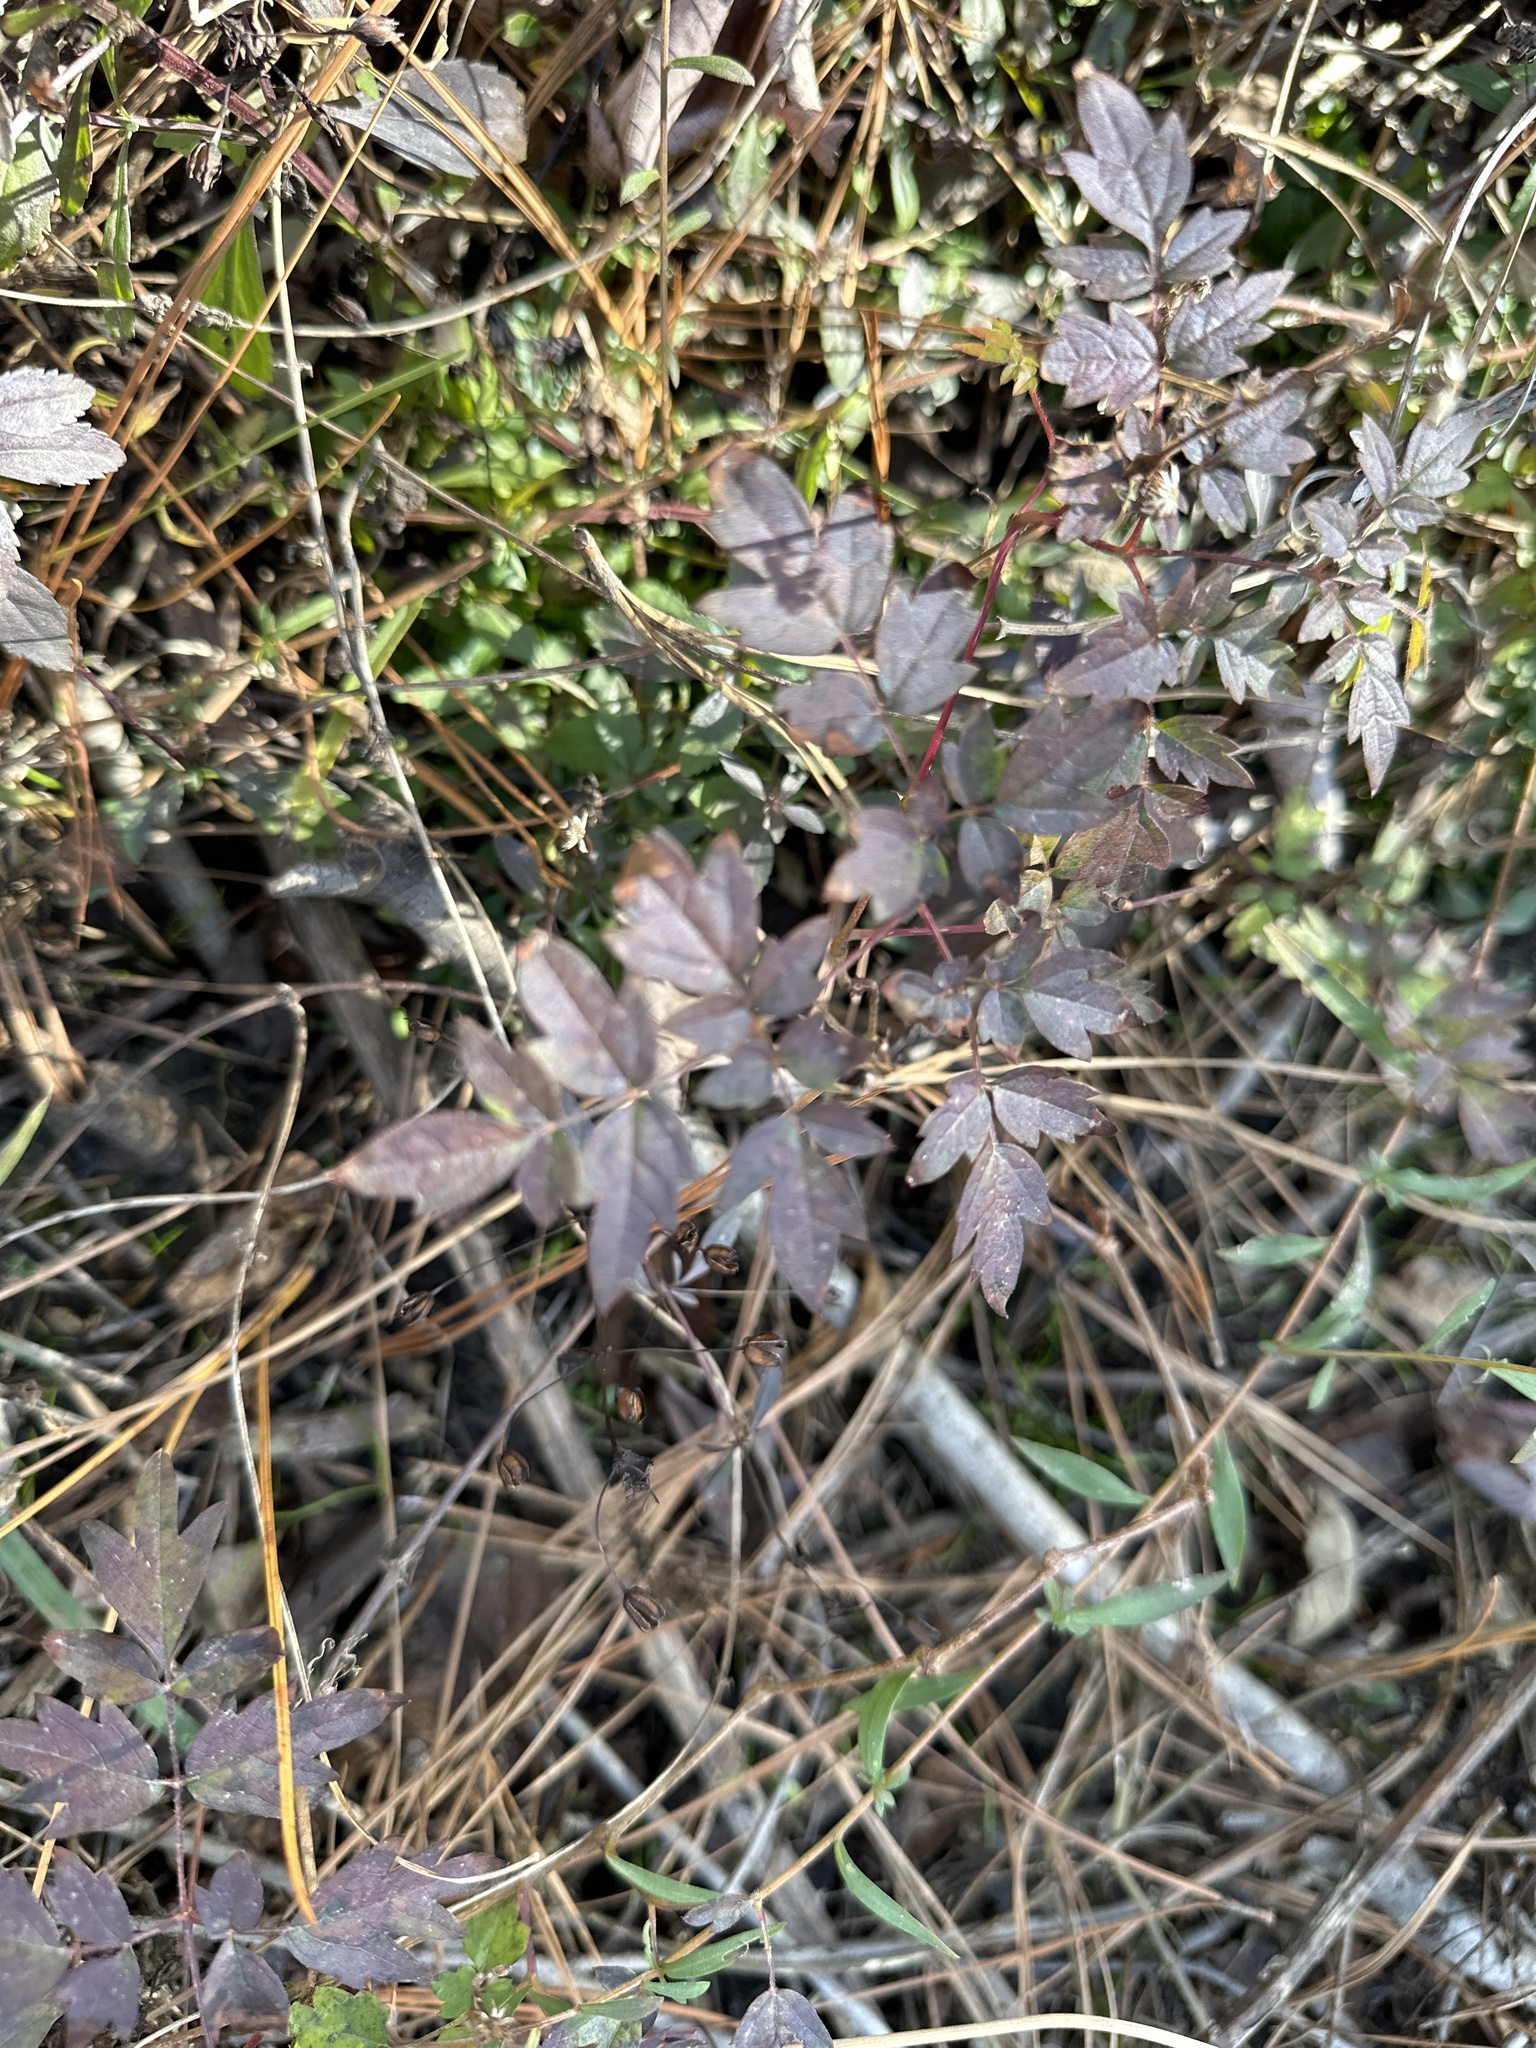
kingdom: Plantae
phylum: Tracheophyta
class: Magnoliopsida
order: Vitales
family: Vitaceae
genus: Nekemias
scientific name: Nekemias arborea
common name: Peppervine
